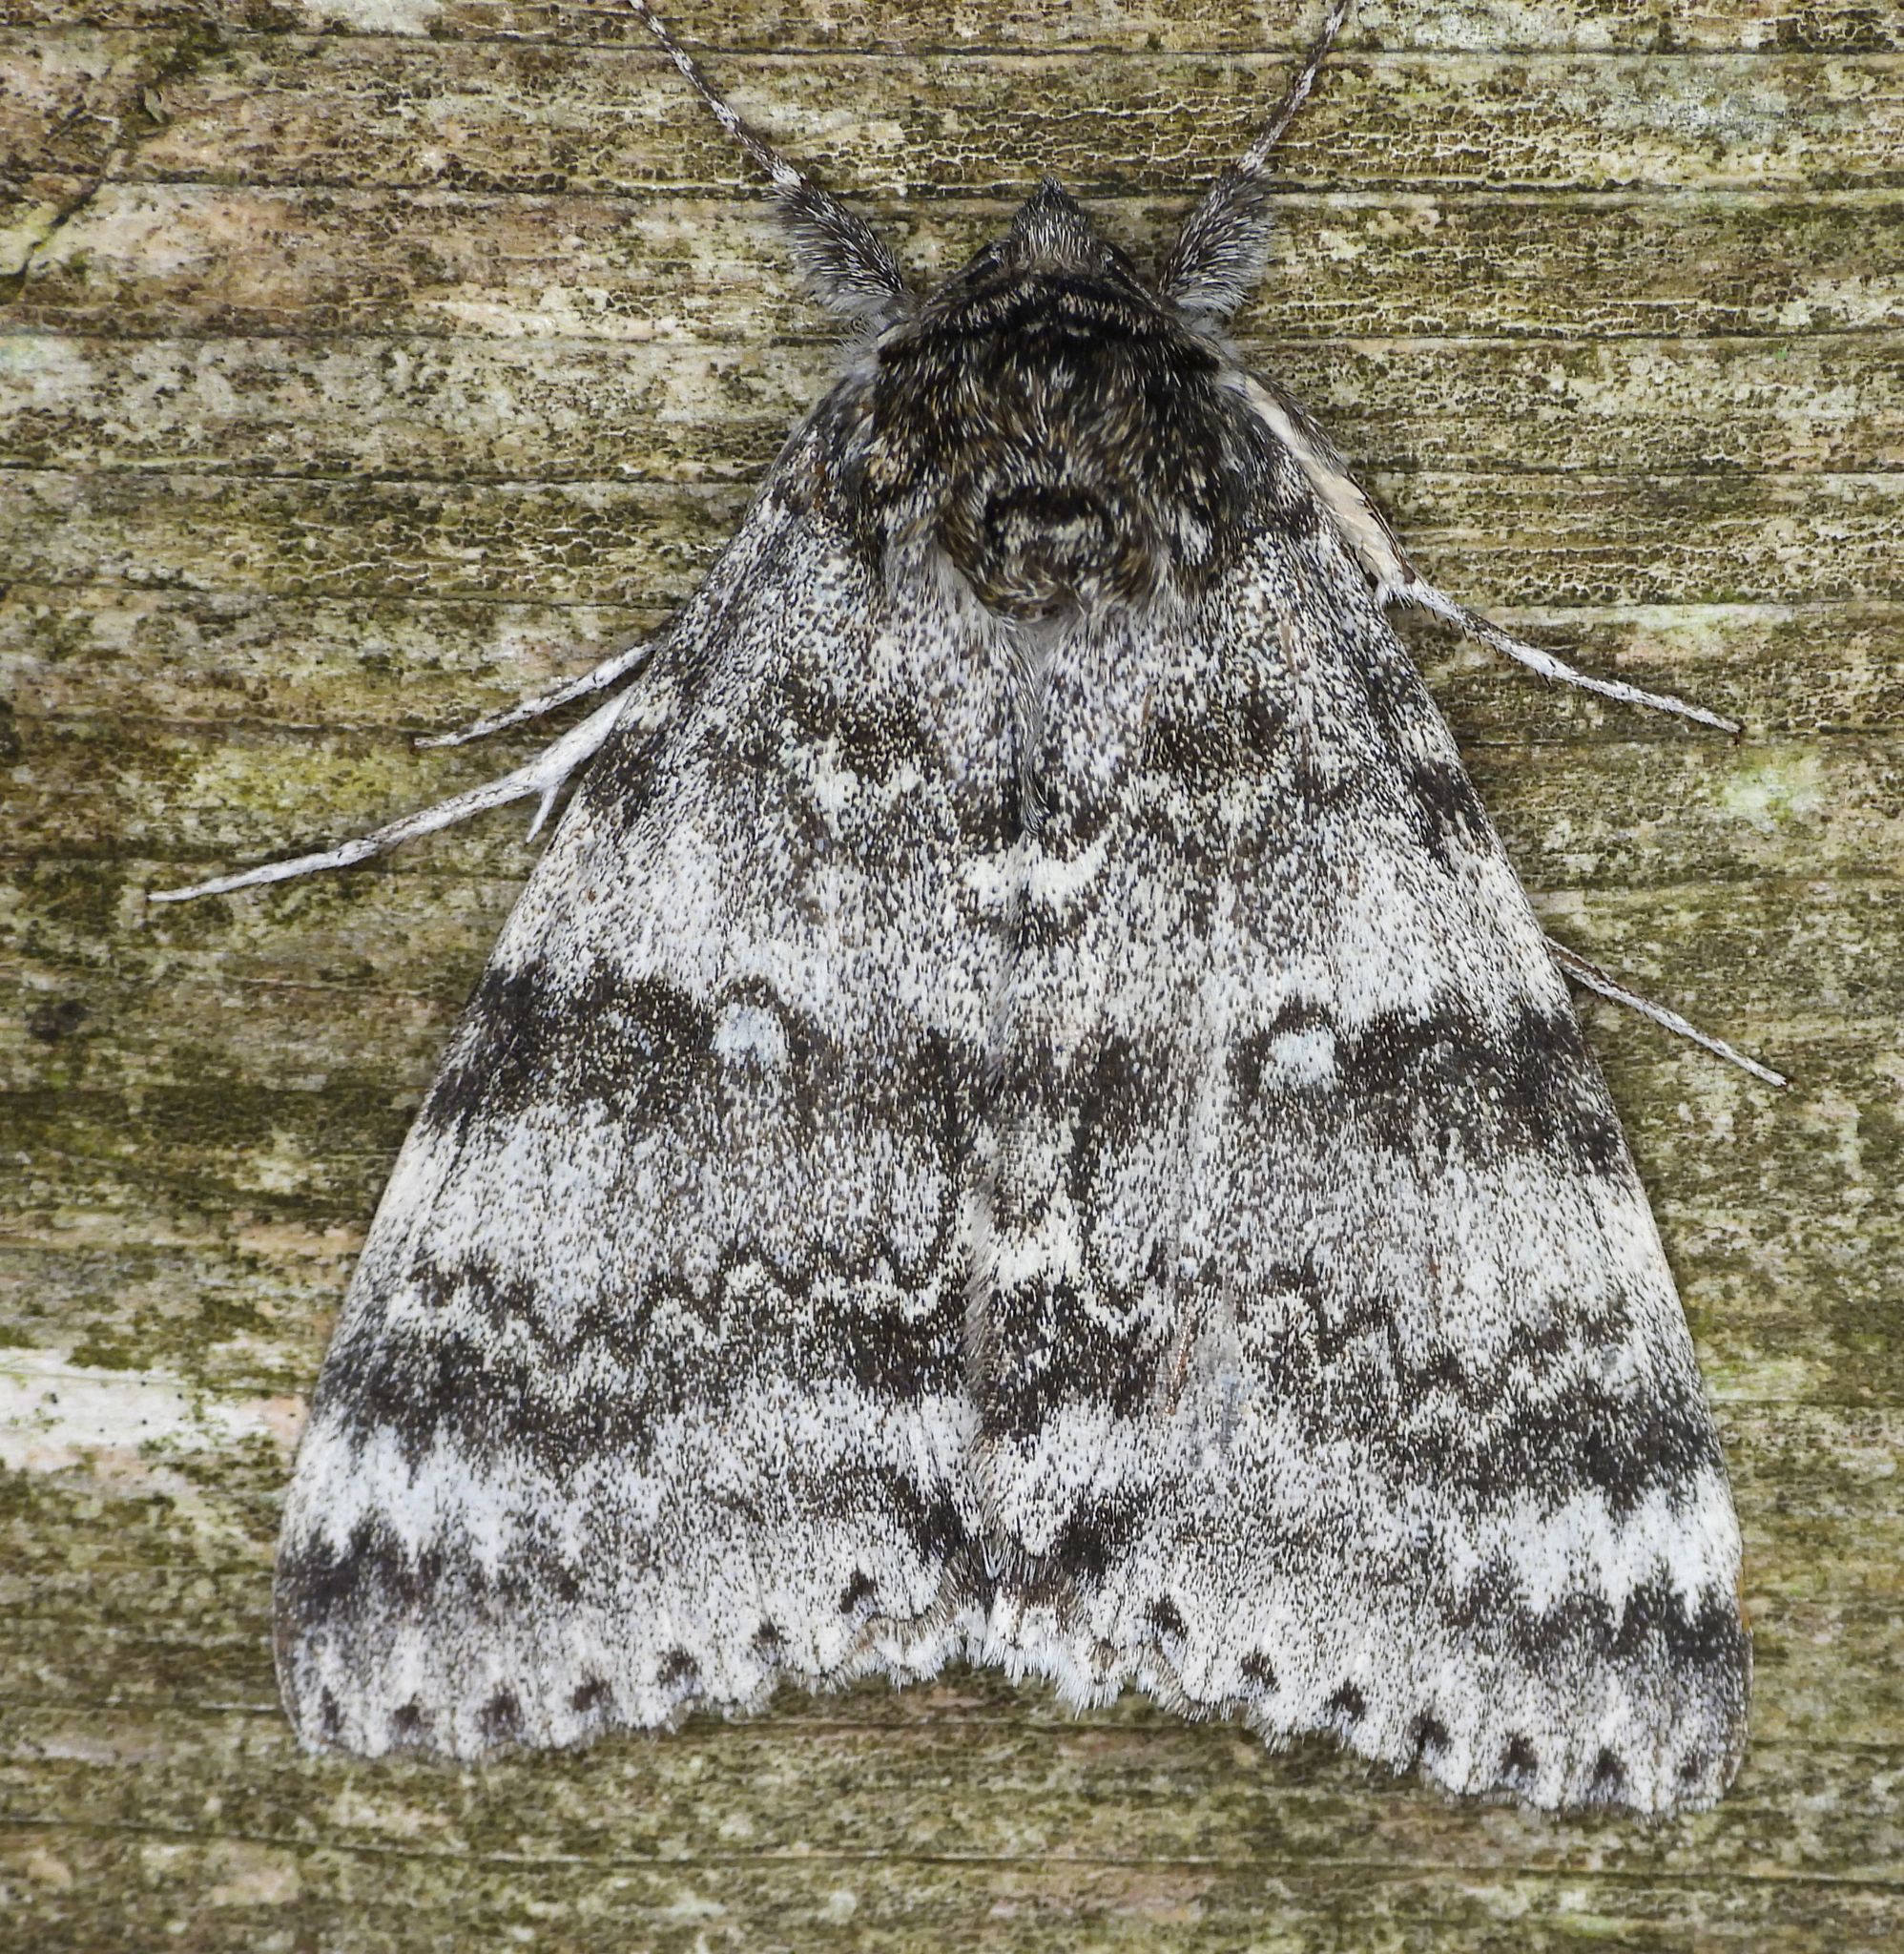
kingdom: Animalia
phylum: Arthropoda
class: Insecta
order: Lepidoptera
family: Erebidae
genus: Catocala
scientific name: Catocala relicta
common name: White underwing
